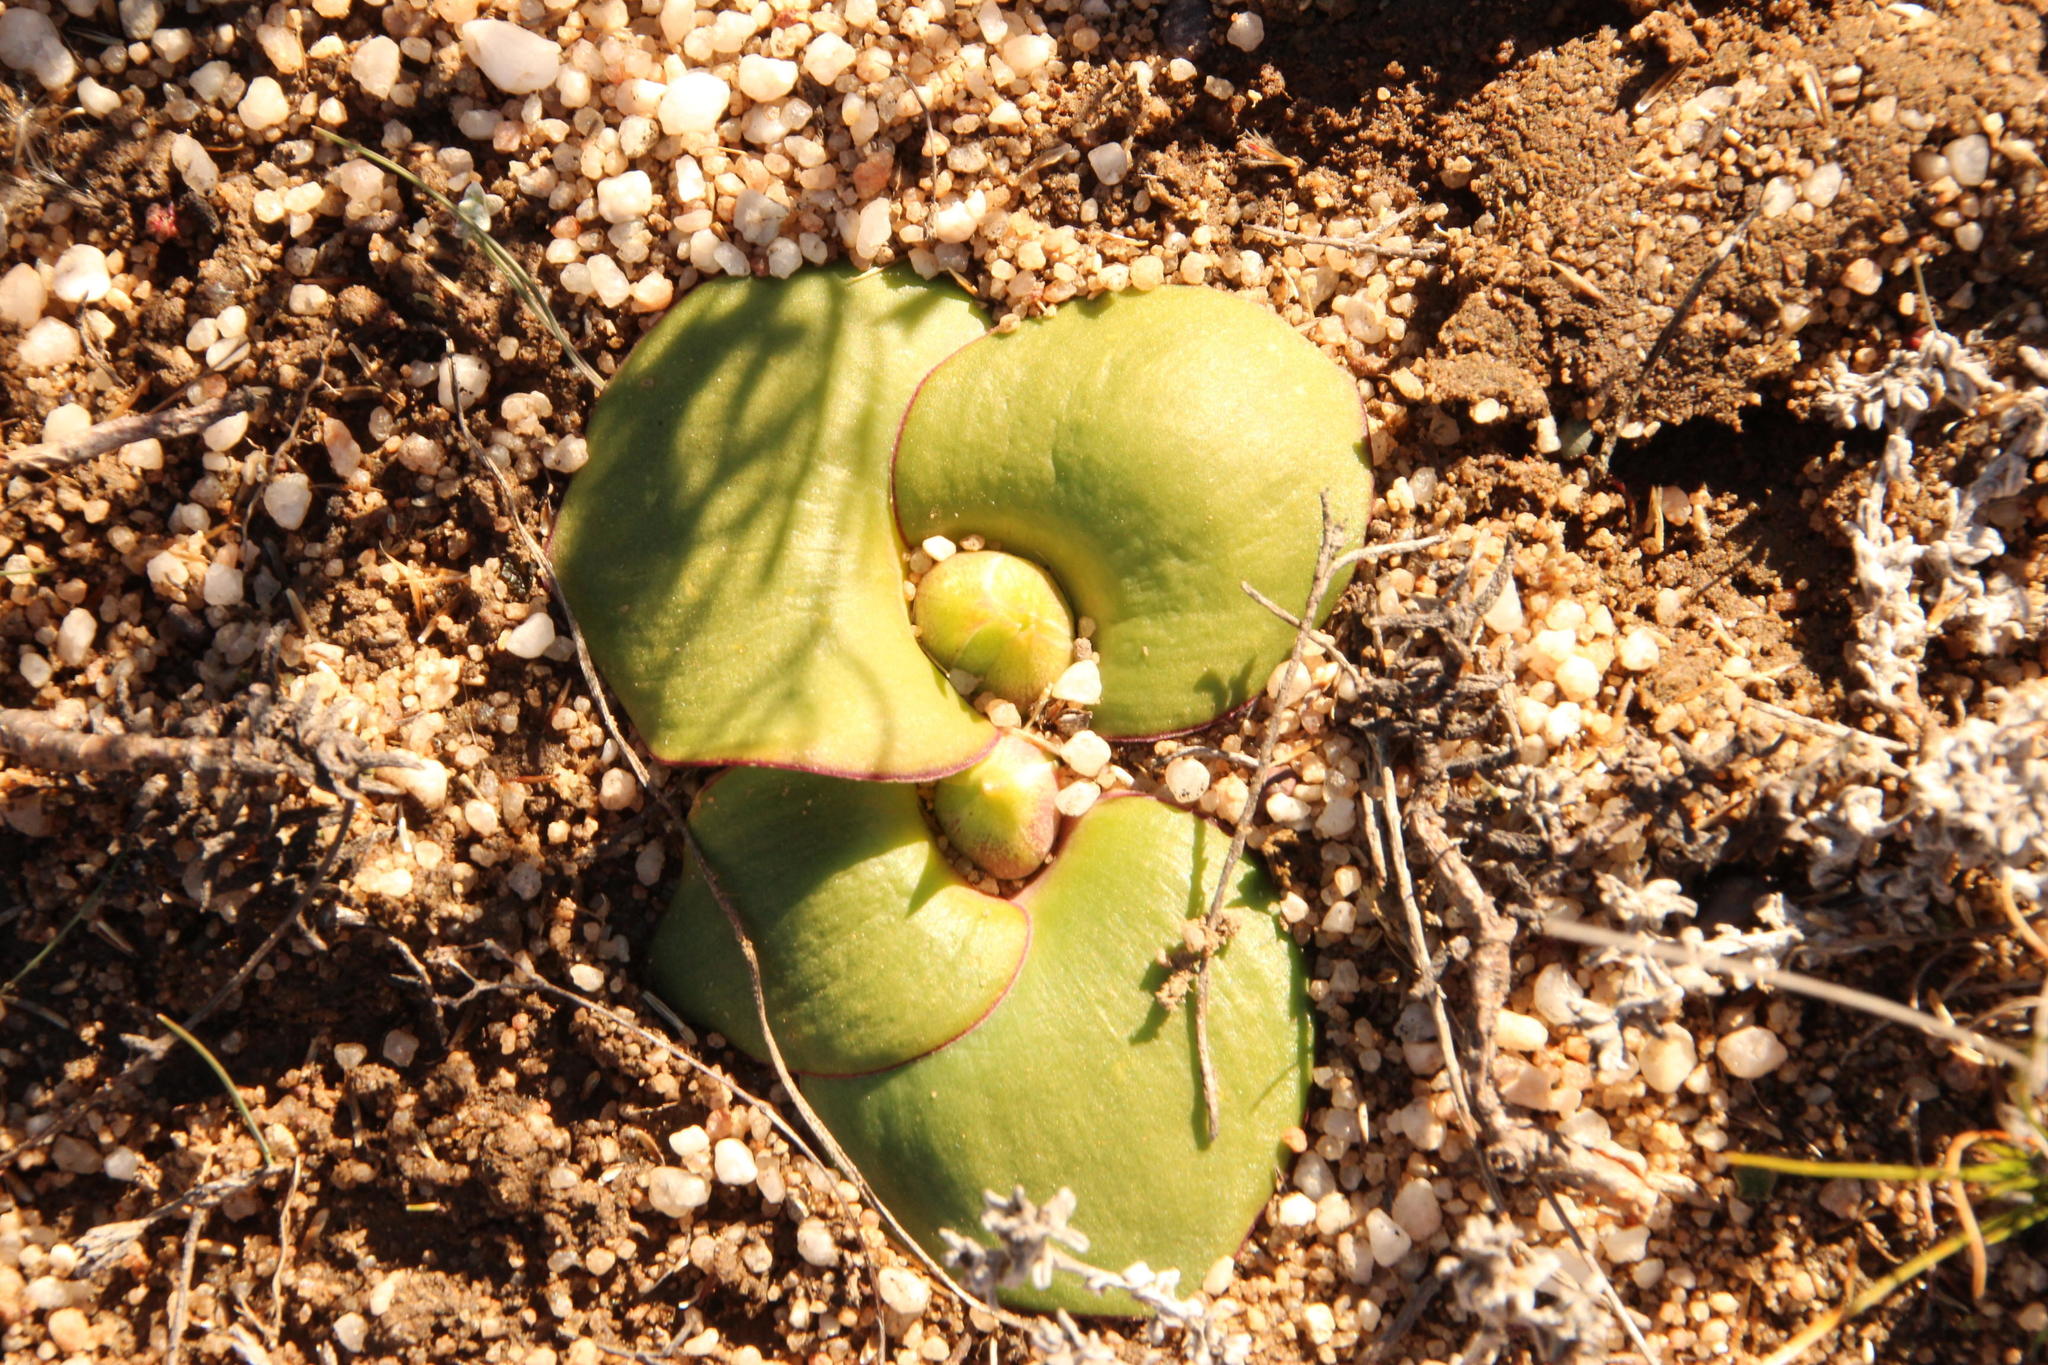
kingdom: Plantae
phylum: Tracheophyta
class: Liliopsida
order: Asparagales
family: Asparagaceae
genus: Massonia
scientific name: Massonia triflora
